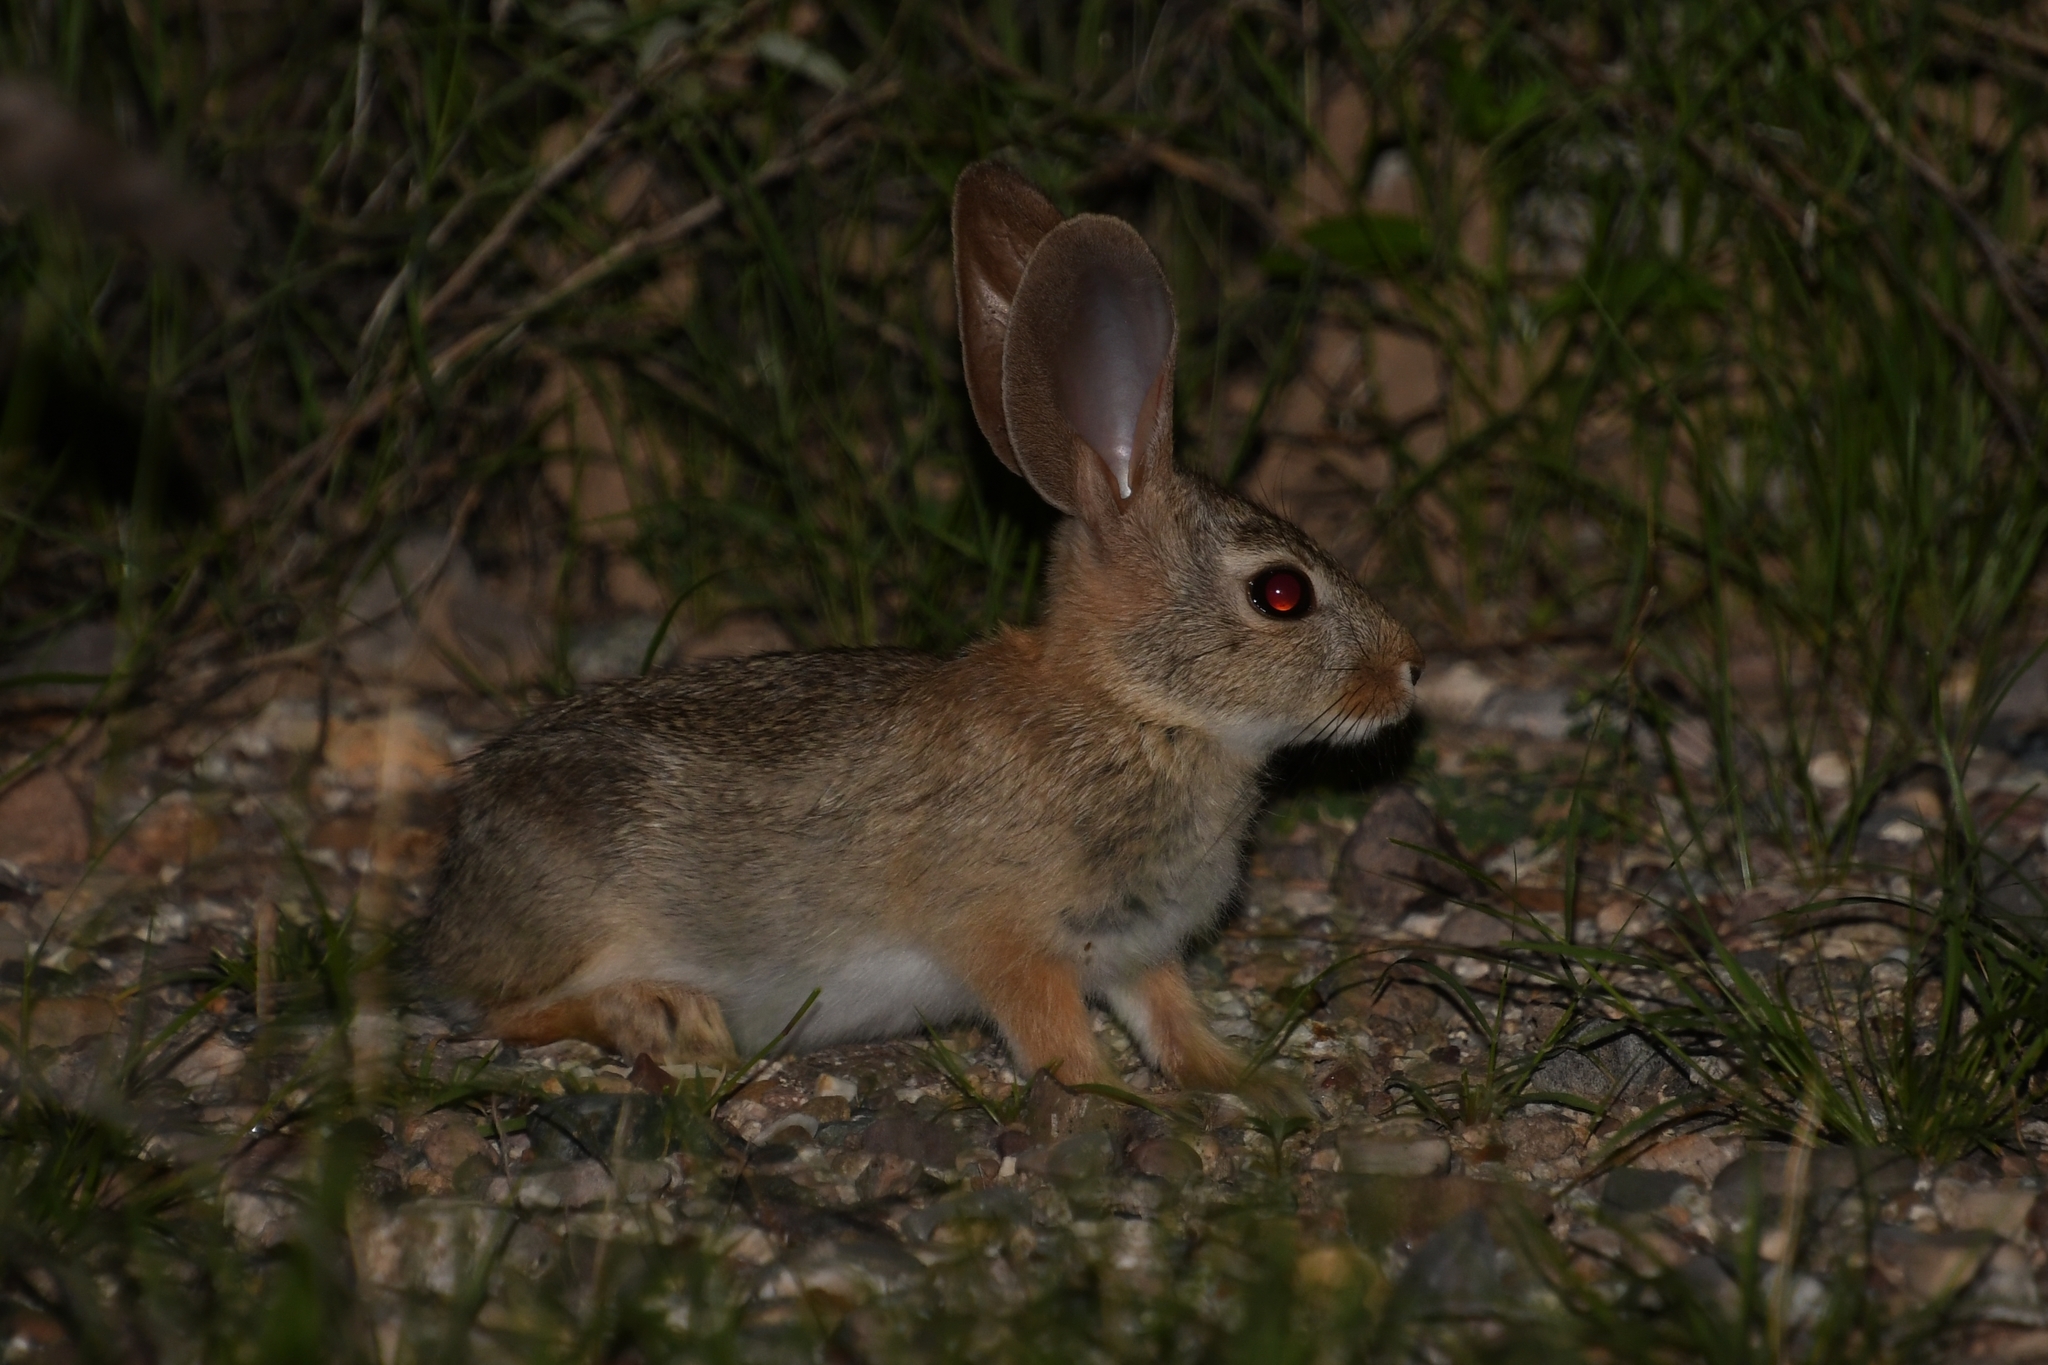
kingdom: Animalia
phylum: Chordata
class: Mammalia
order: Lagomorpha
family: Leporidae
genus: Sylvilagus
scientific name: Sylvilagus audubonii
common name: Desert cottontail
